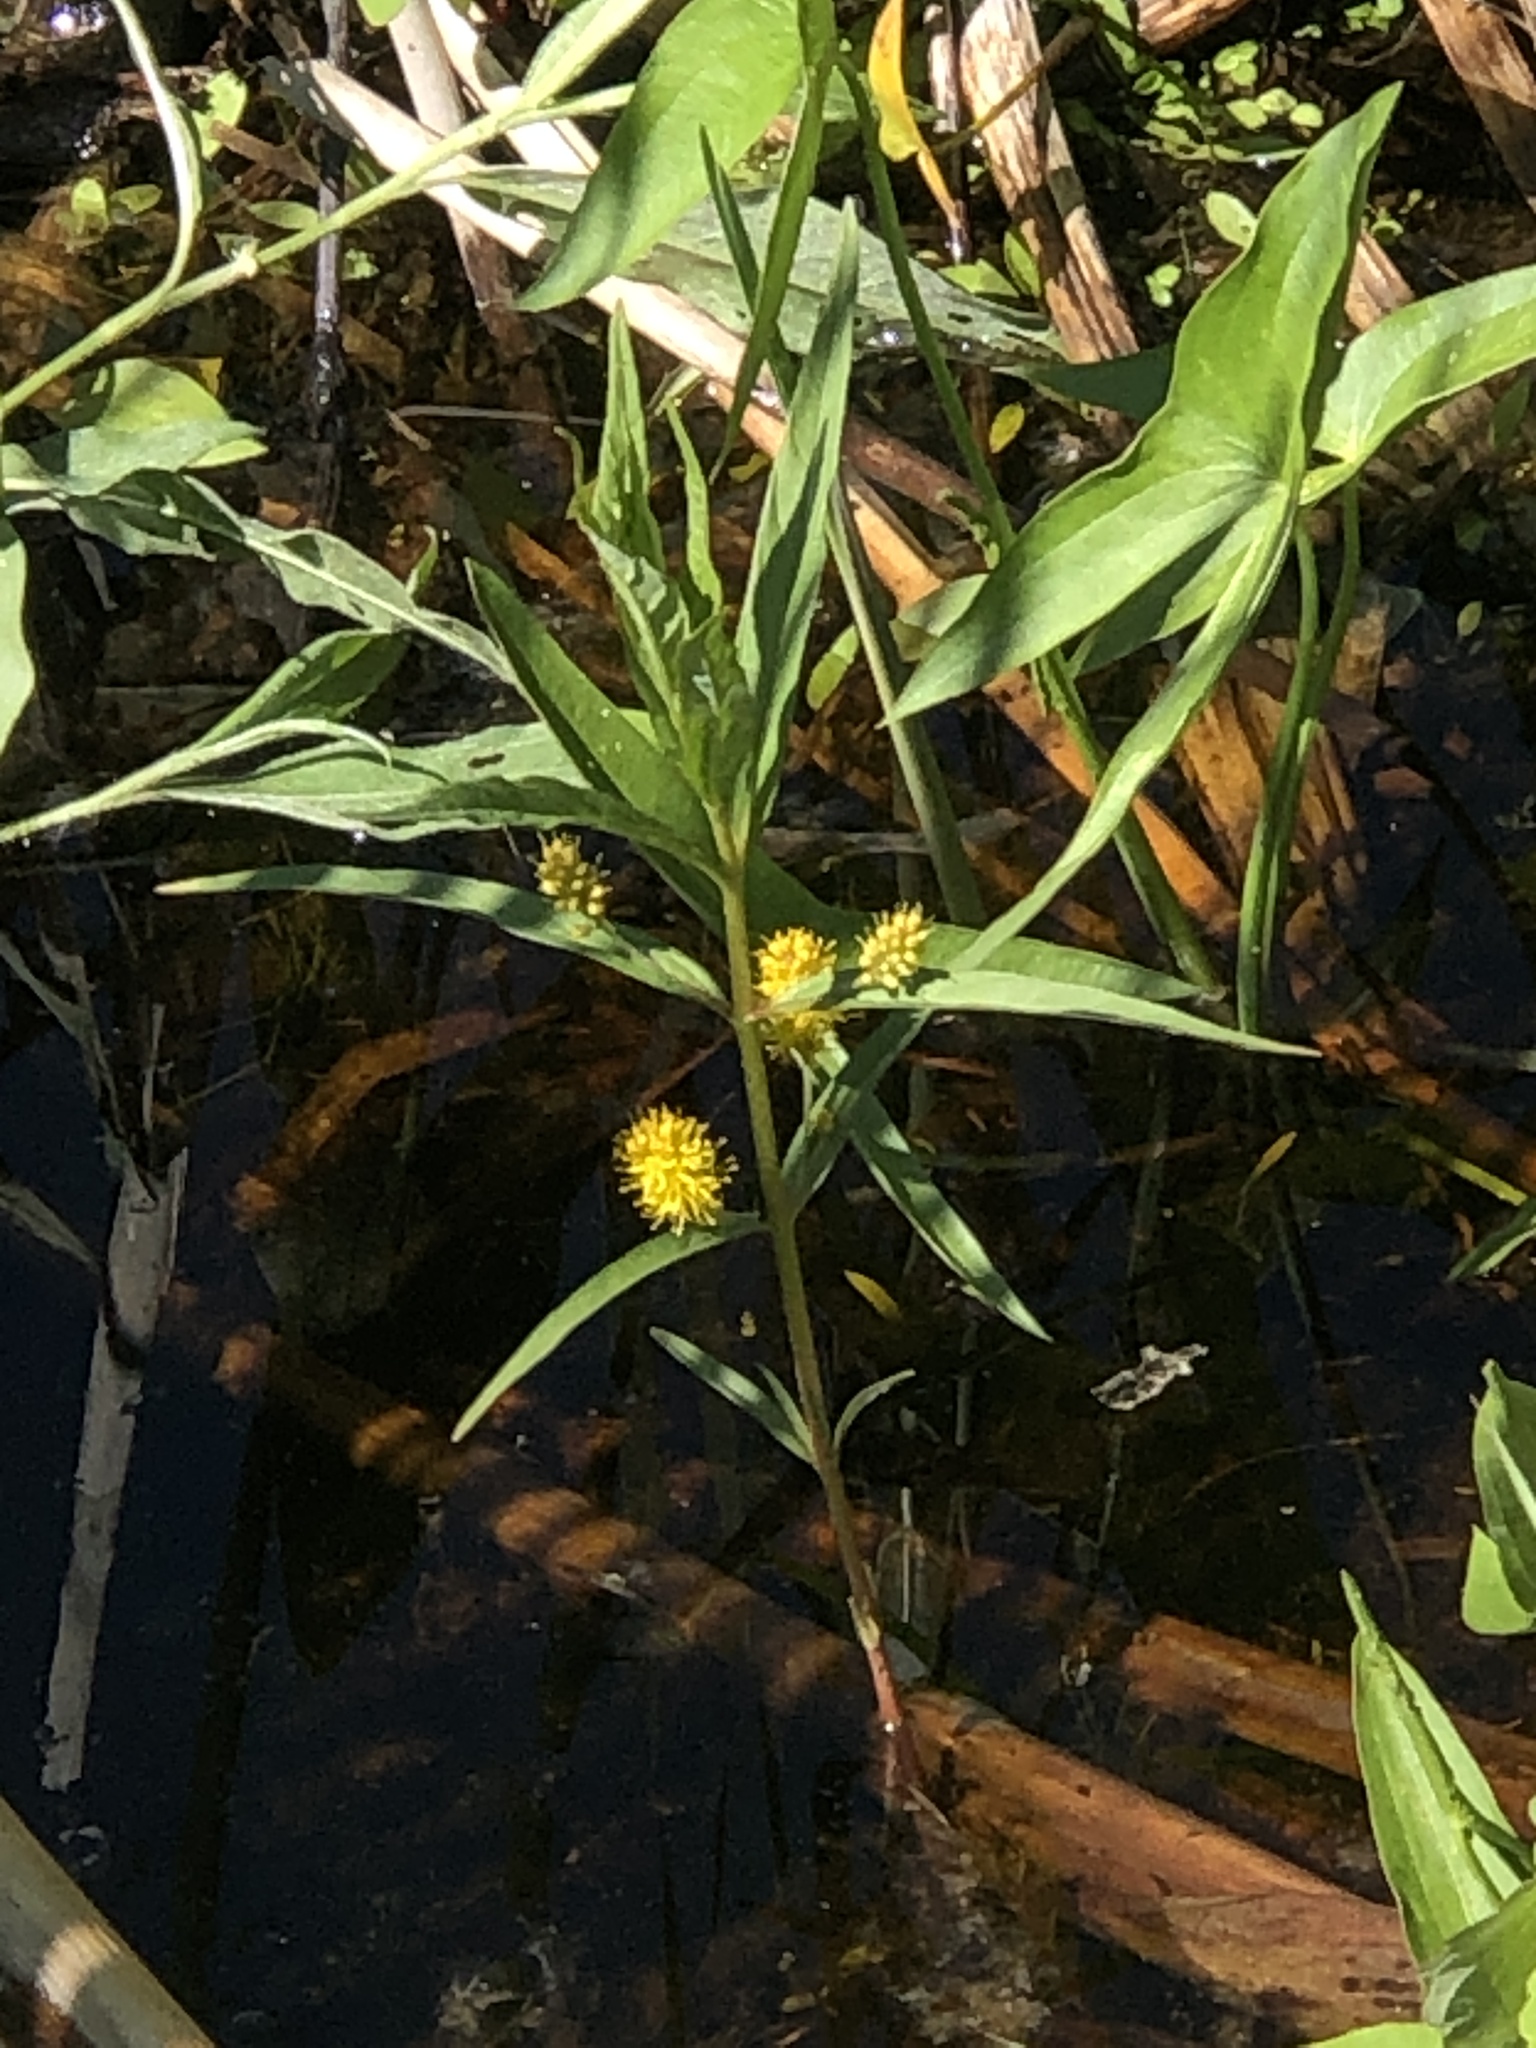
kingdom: Plantae
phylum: Tracheophyta
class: Magnoliopsida
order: Ericales
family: Primulaceae
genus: Lysimachia
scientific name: Lysimachia thyrsiflora
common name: Tufted loosestrife
